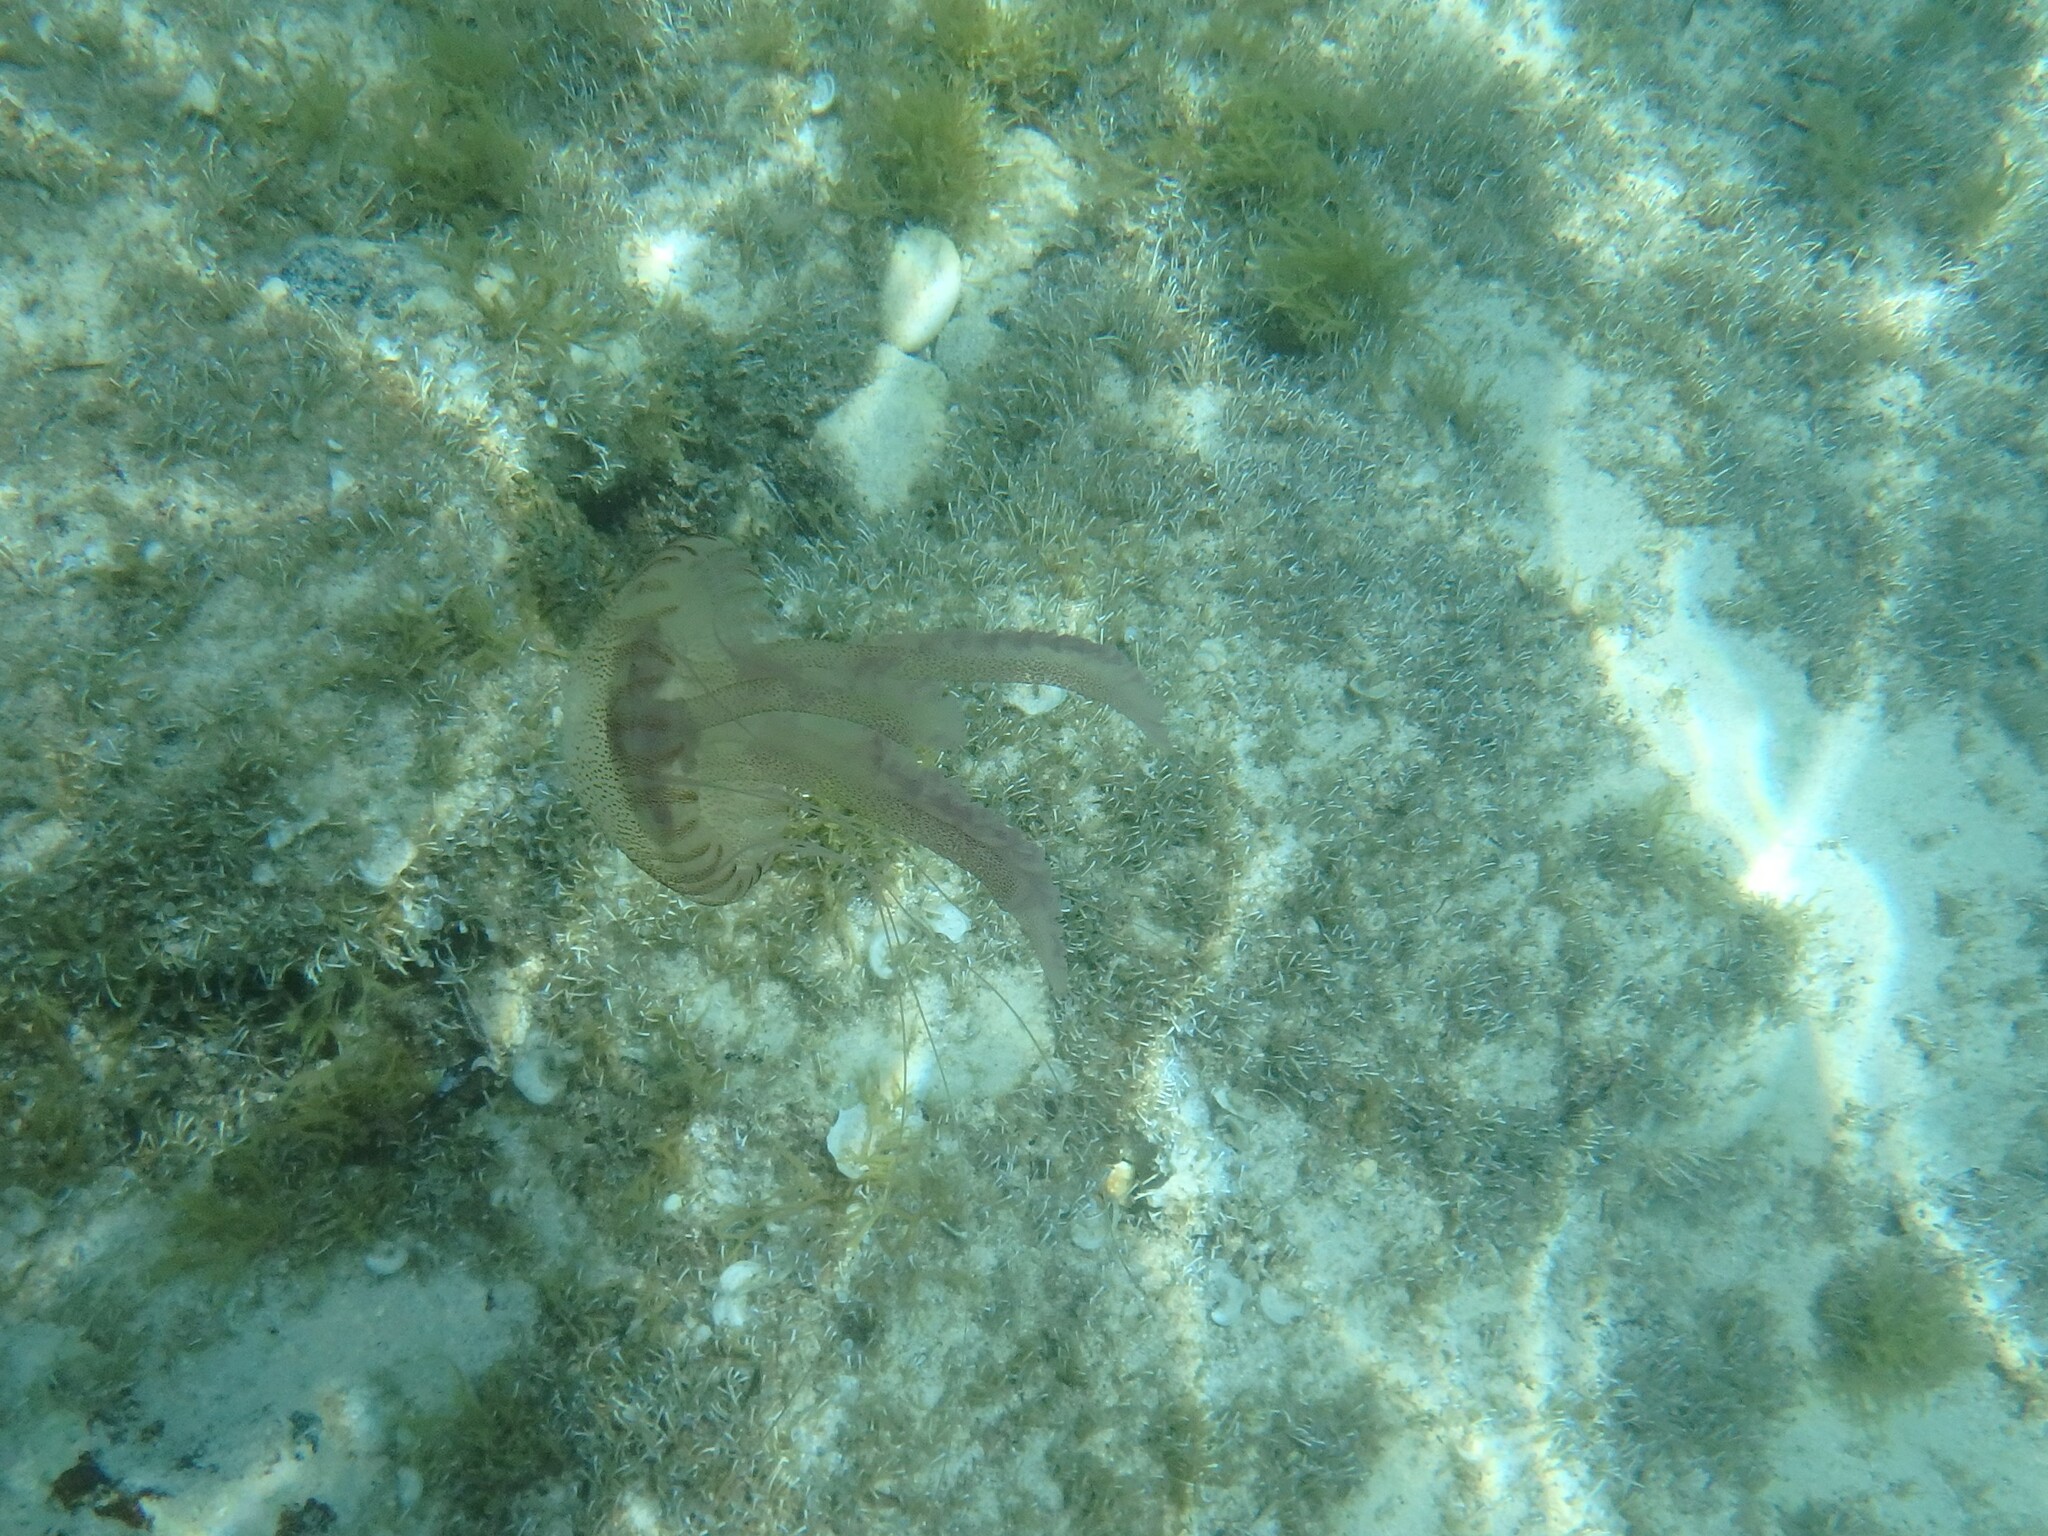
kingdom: Animalia
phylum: Cnidaria
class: Scyphozoa
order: Semaeostomeae
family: Pelagiidae
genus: Pelagia
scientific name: Pelagia noctiluca
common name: Mauve stinger
